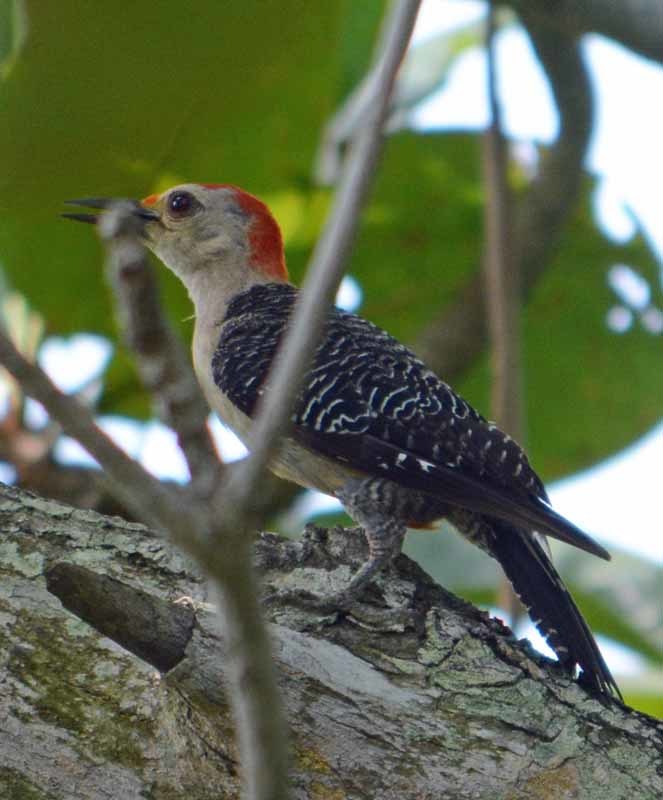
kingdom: Animalia
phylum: Chordata
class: Aves
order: Piciformes
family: Picidae
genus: Melanerpes
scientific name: Melanerpes aurifrons
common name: Golden-fronted woodpecker
